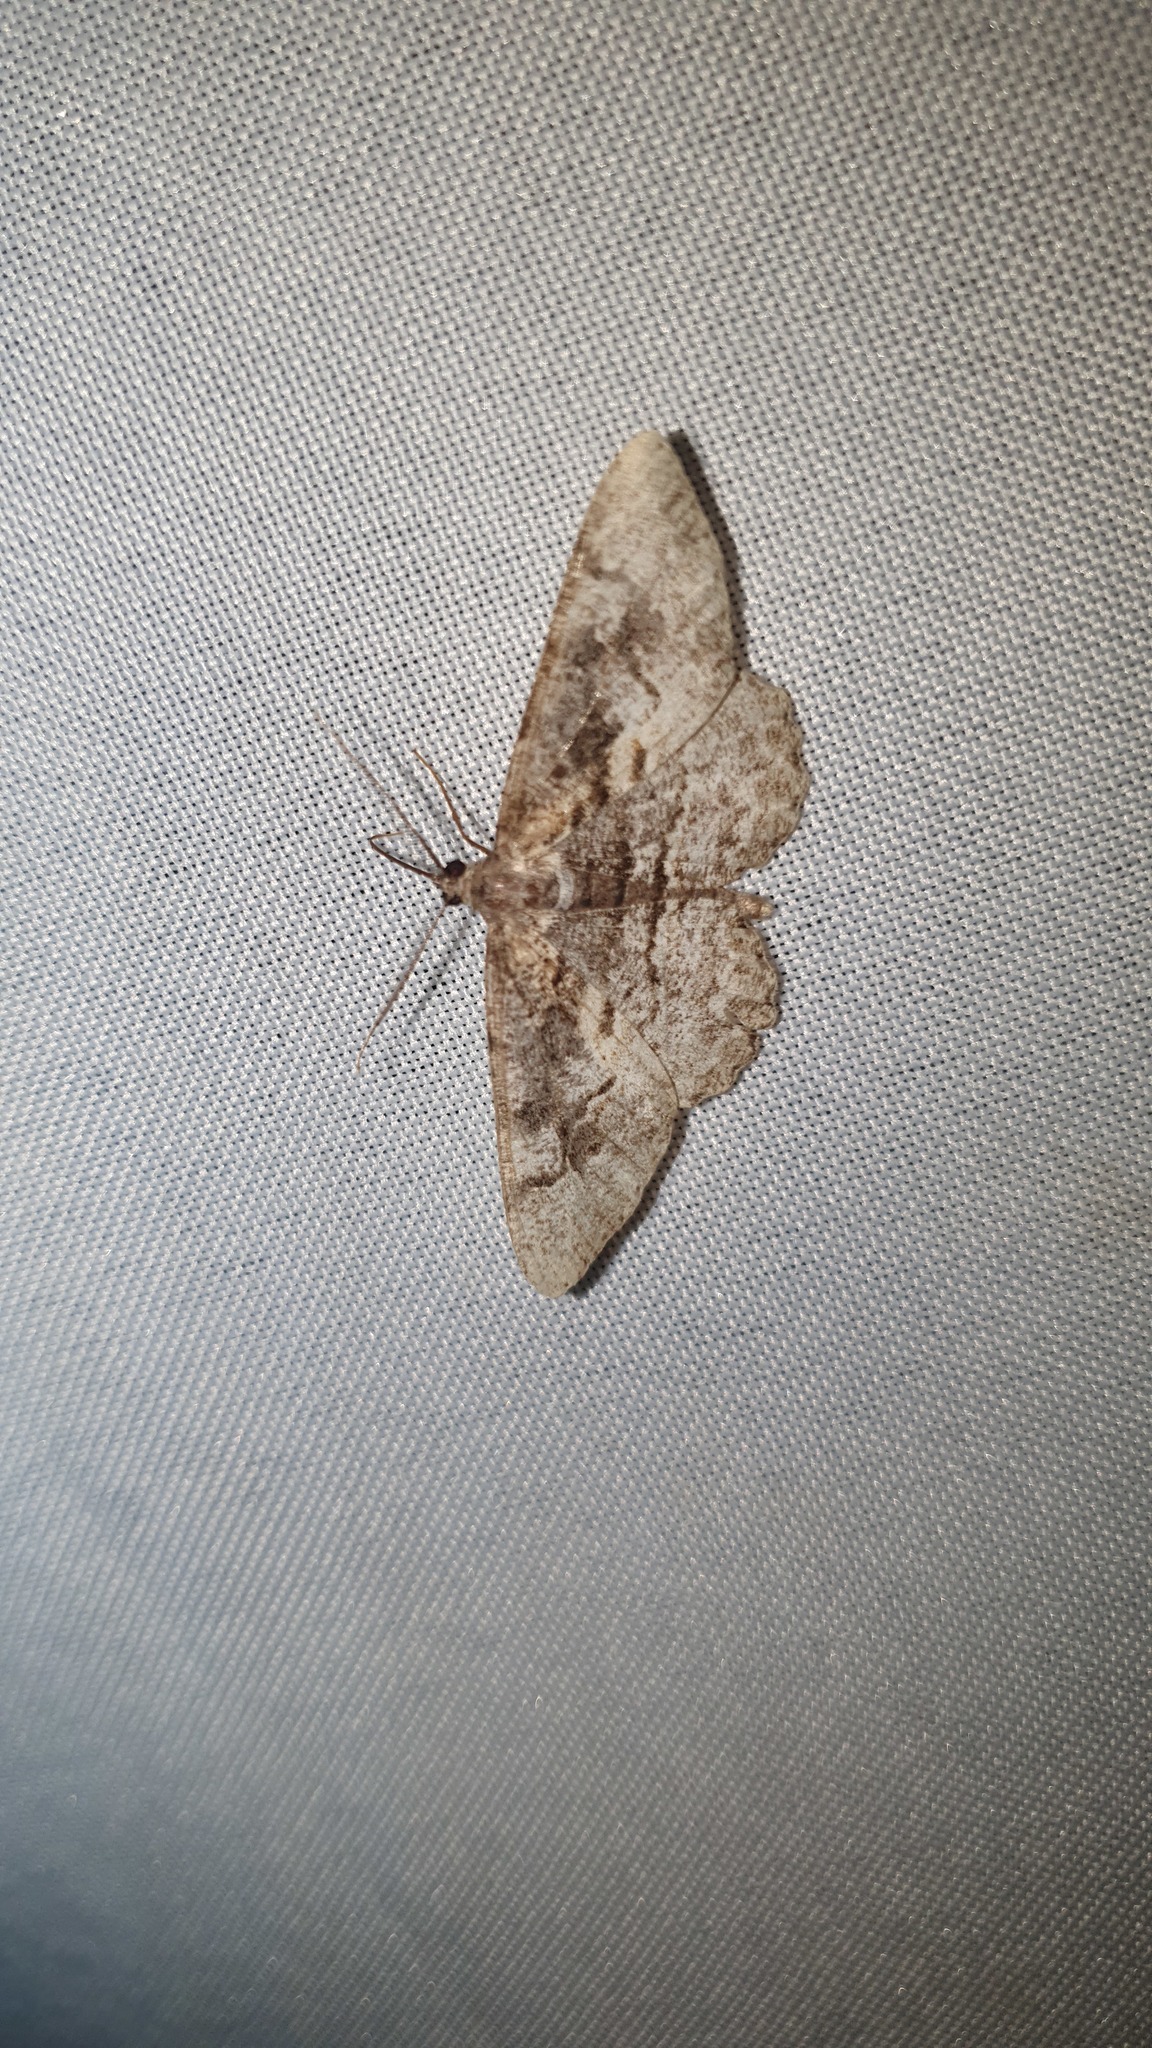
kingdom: Animalia
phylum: Arthropoda
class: Insecta
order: Lepidoptera
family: Geometridae
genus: Alcis
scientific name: Alcis repandata
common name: Mottled beauty
